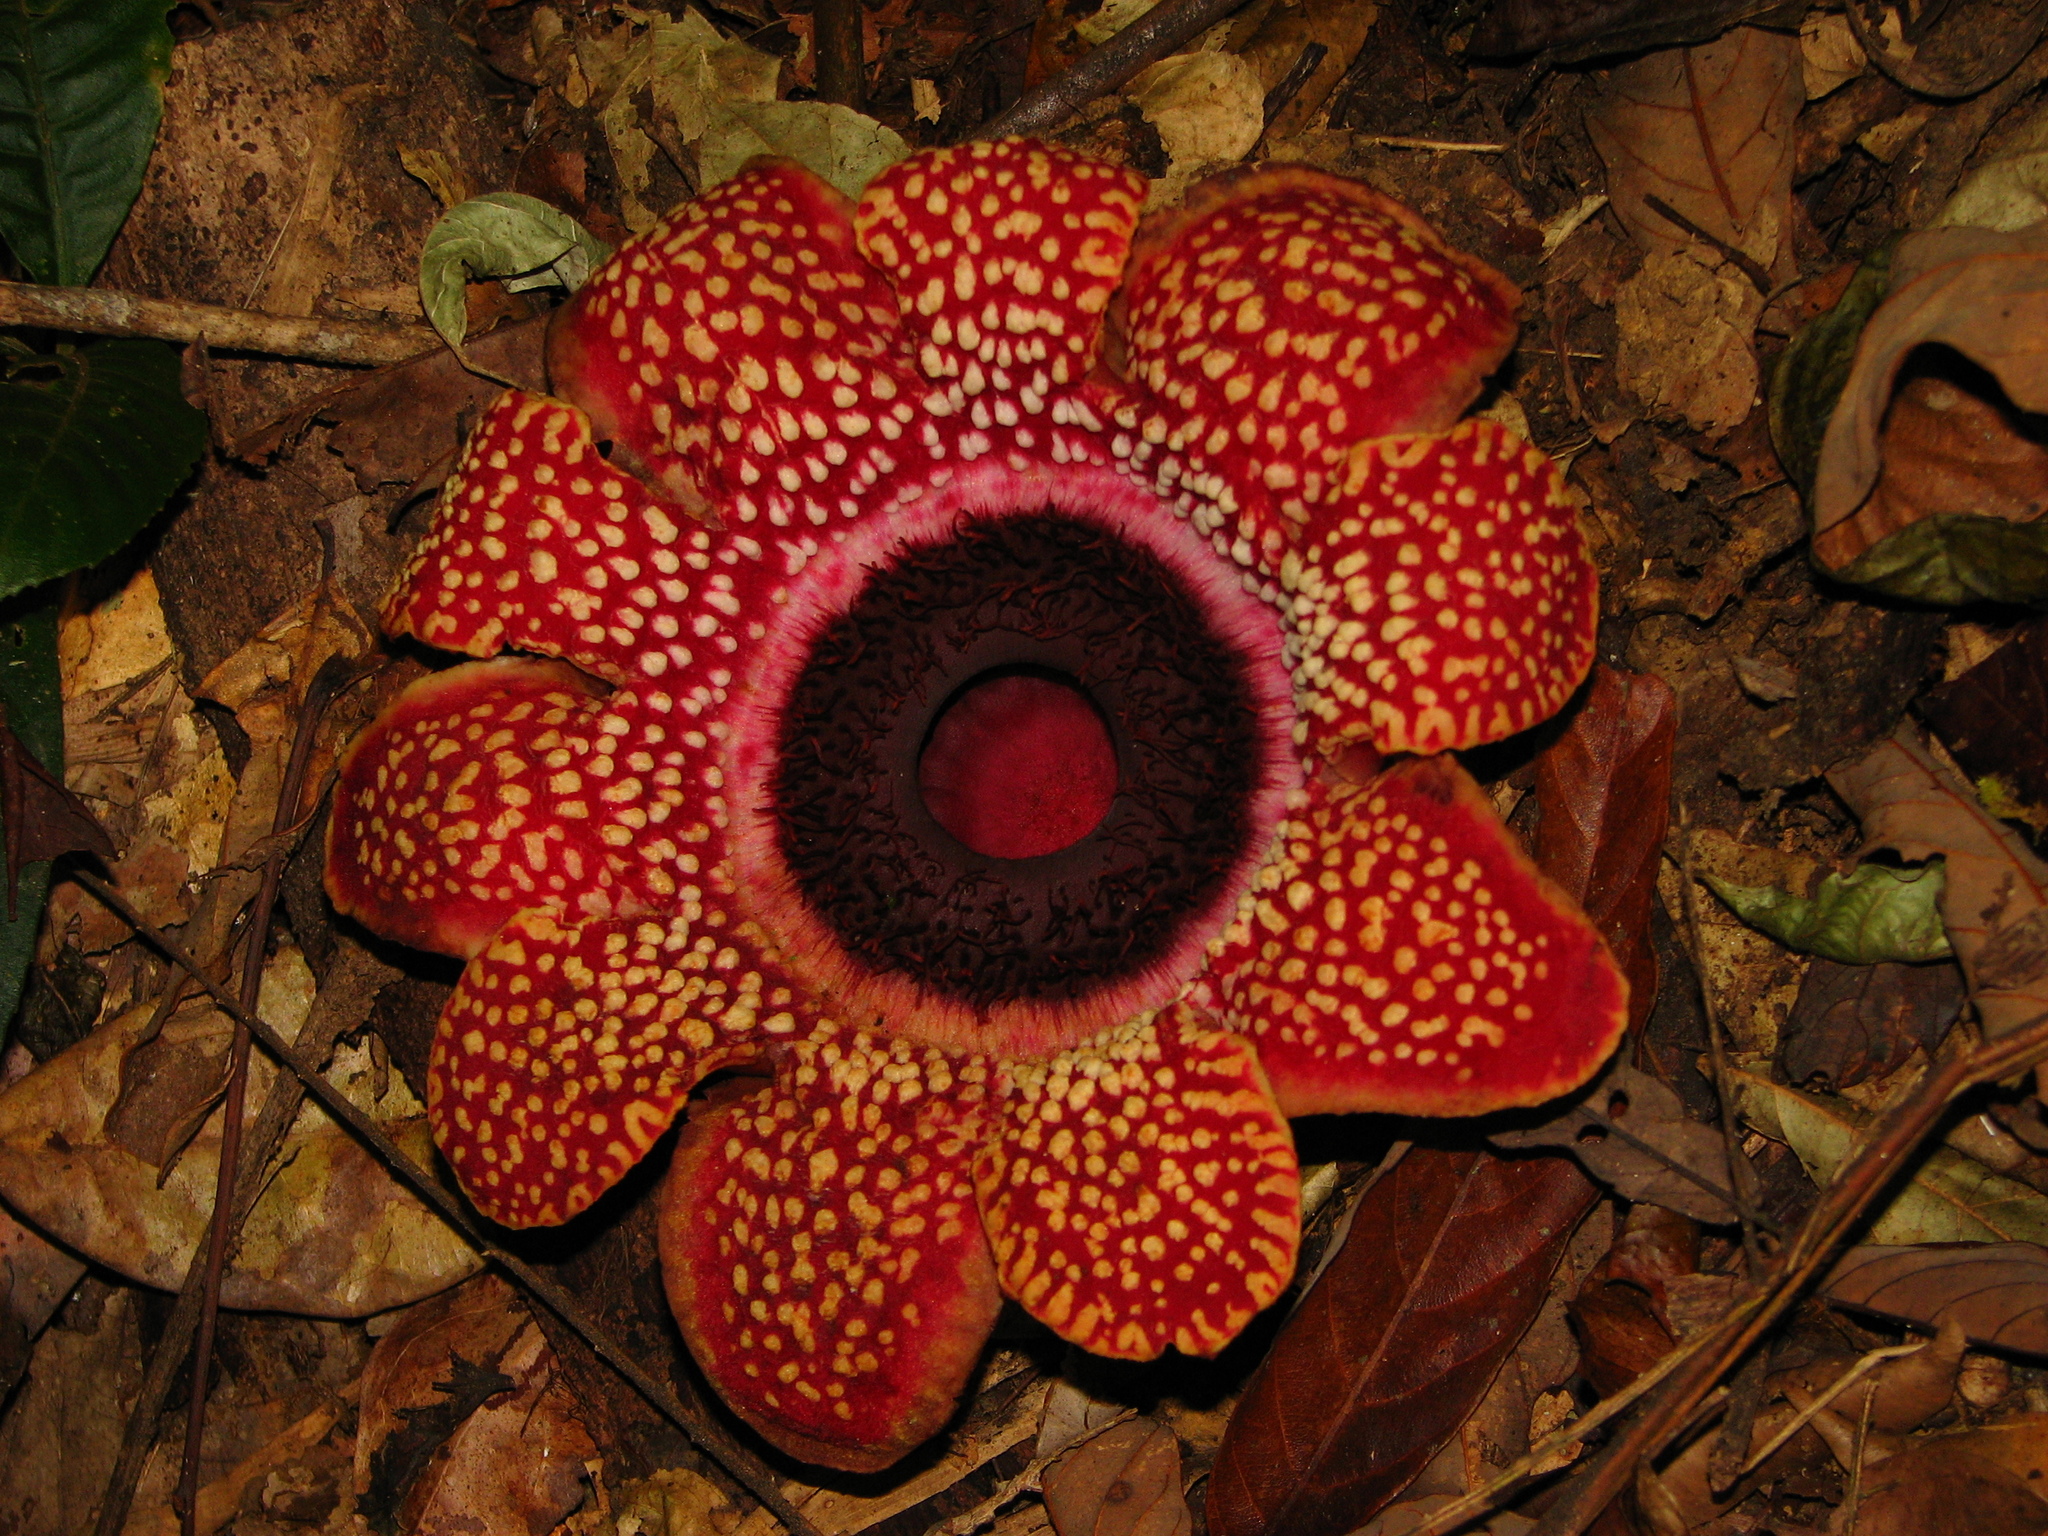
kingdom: Plantae
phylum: Tracheophyta
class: Magnoliopsida
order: Malpighiales
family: Rafflesiaceae
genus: Sapria
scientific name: Sapria himalayana
